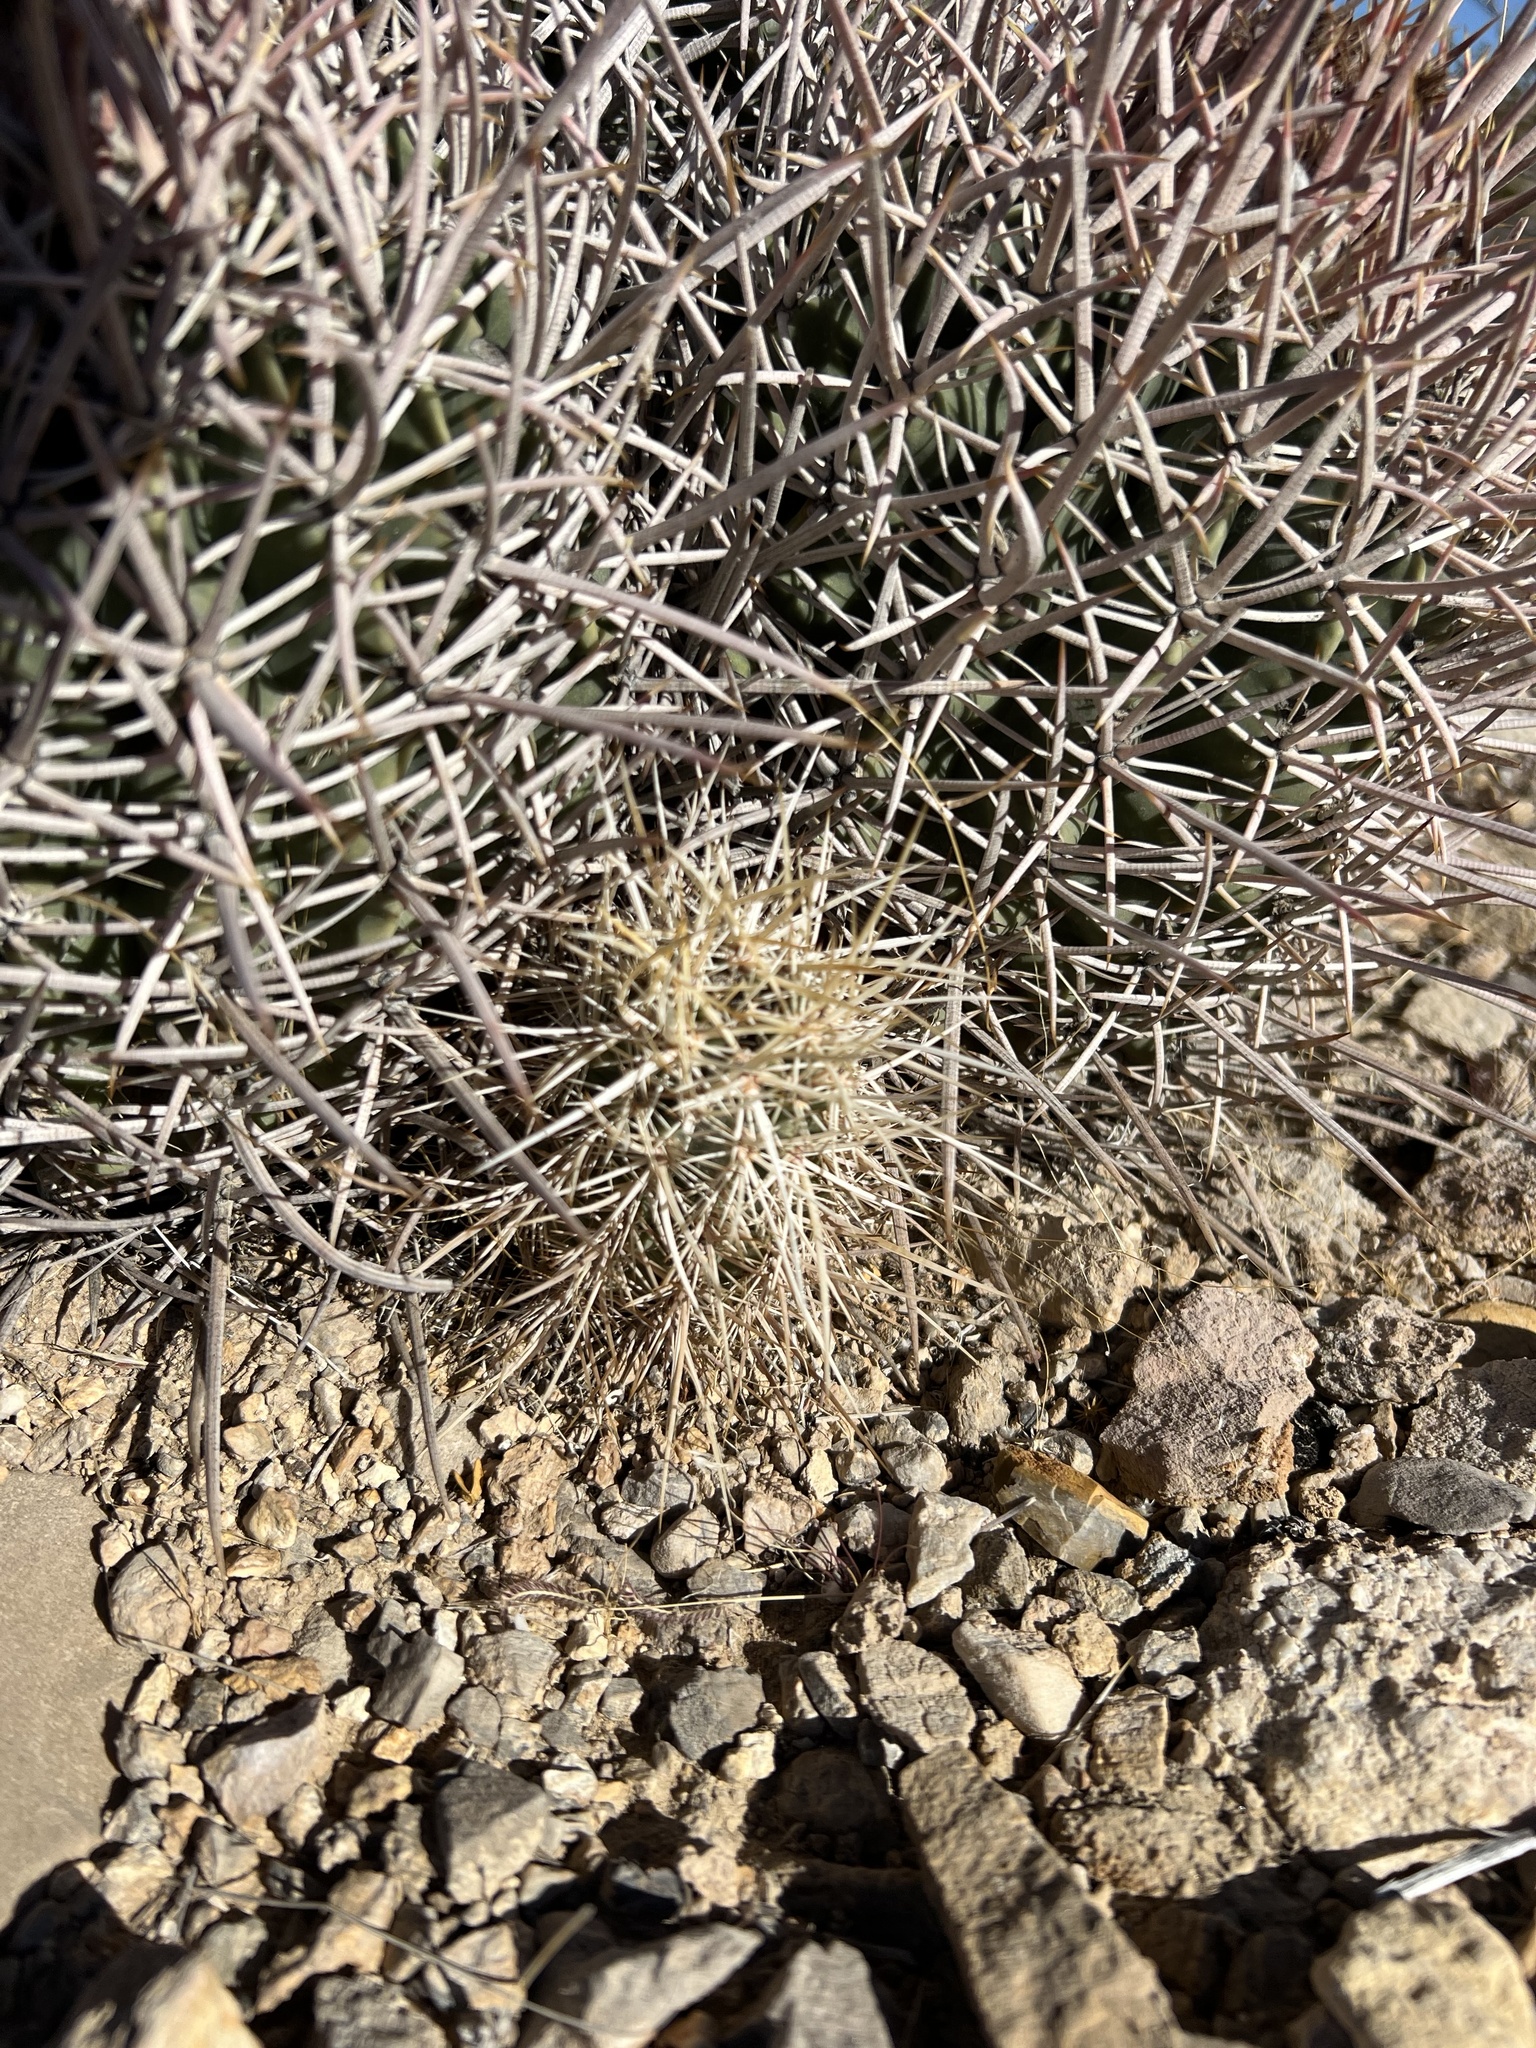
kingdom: Plantae
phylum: Tracheophyta
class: Magnoliopsida
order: Caryophyllales
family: Cactaceae
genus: Echinocereus
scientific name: Echinocereus engelmannii
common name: Engelmann's hedgehog cactus
